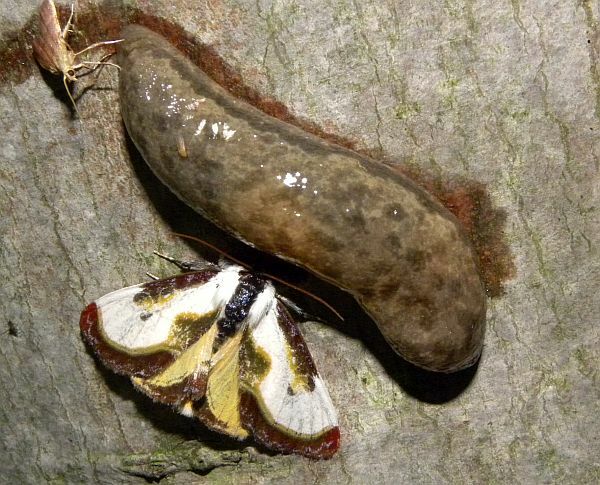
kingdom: Animalia
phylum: Arthropoda
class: Insecta
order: Lepidoptera
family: Noctuidae
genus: Eudryas
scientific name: Eudryas grata
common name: Beautiful wood-nymph
